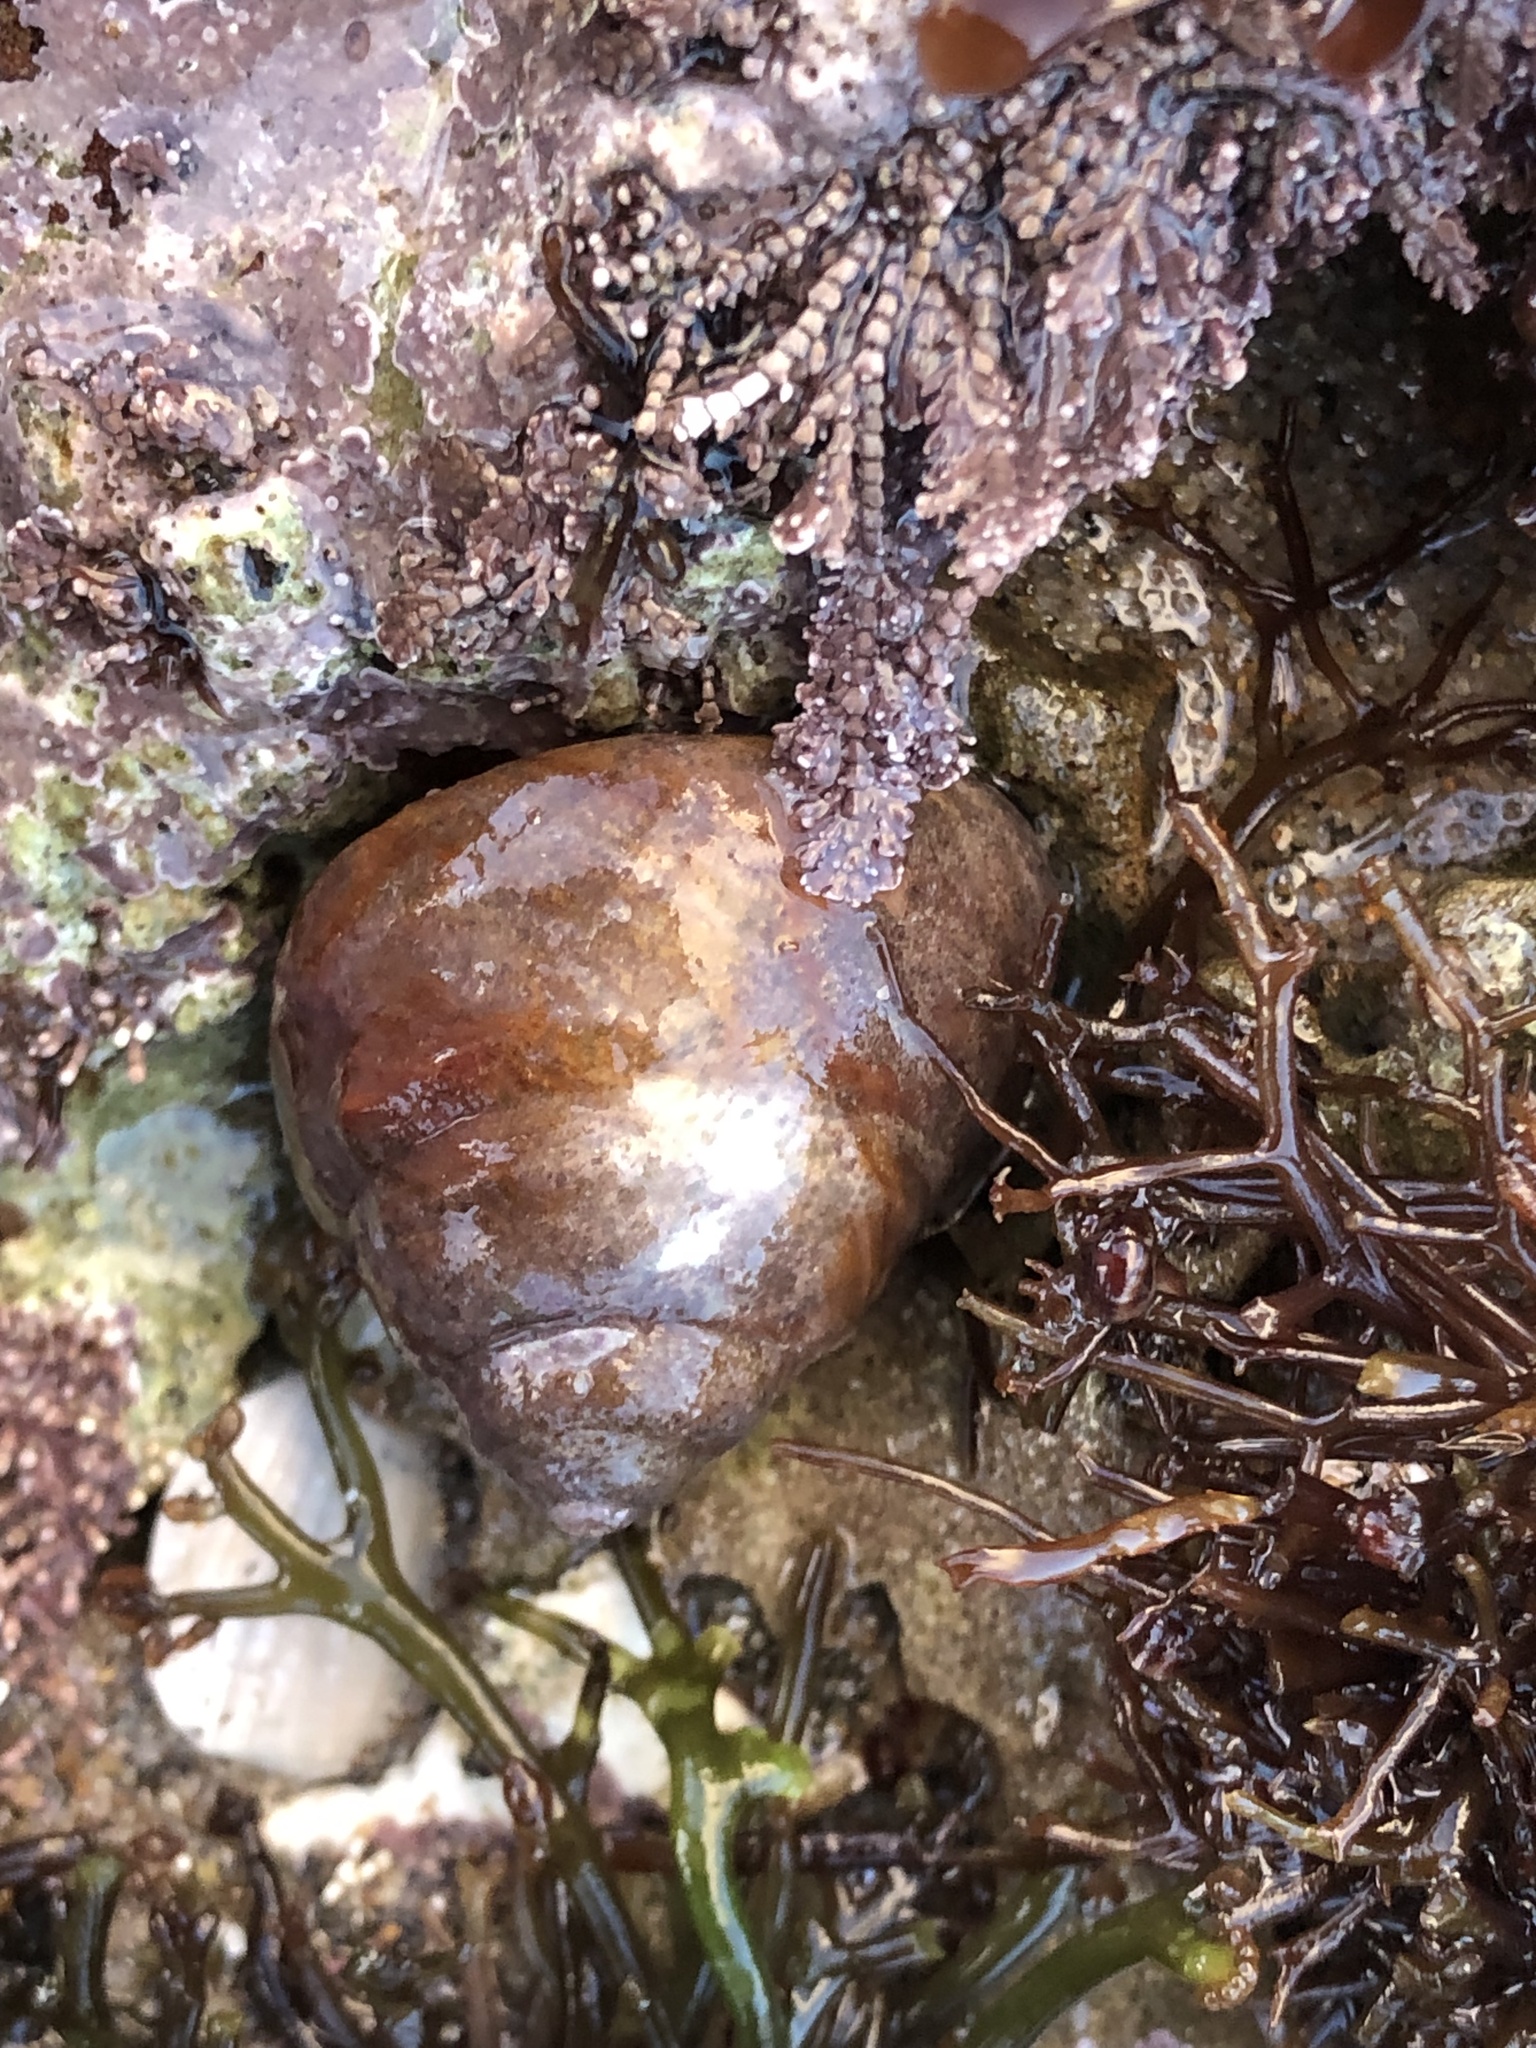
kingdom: Animalia
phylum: Mollusca
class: Gastropoda
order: Trochida
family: Tegulidae
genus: Tegula
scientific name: Tegula brunnea
